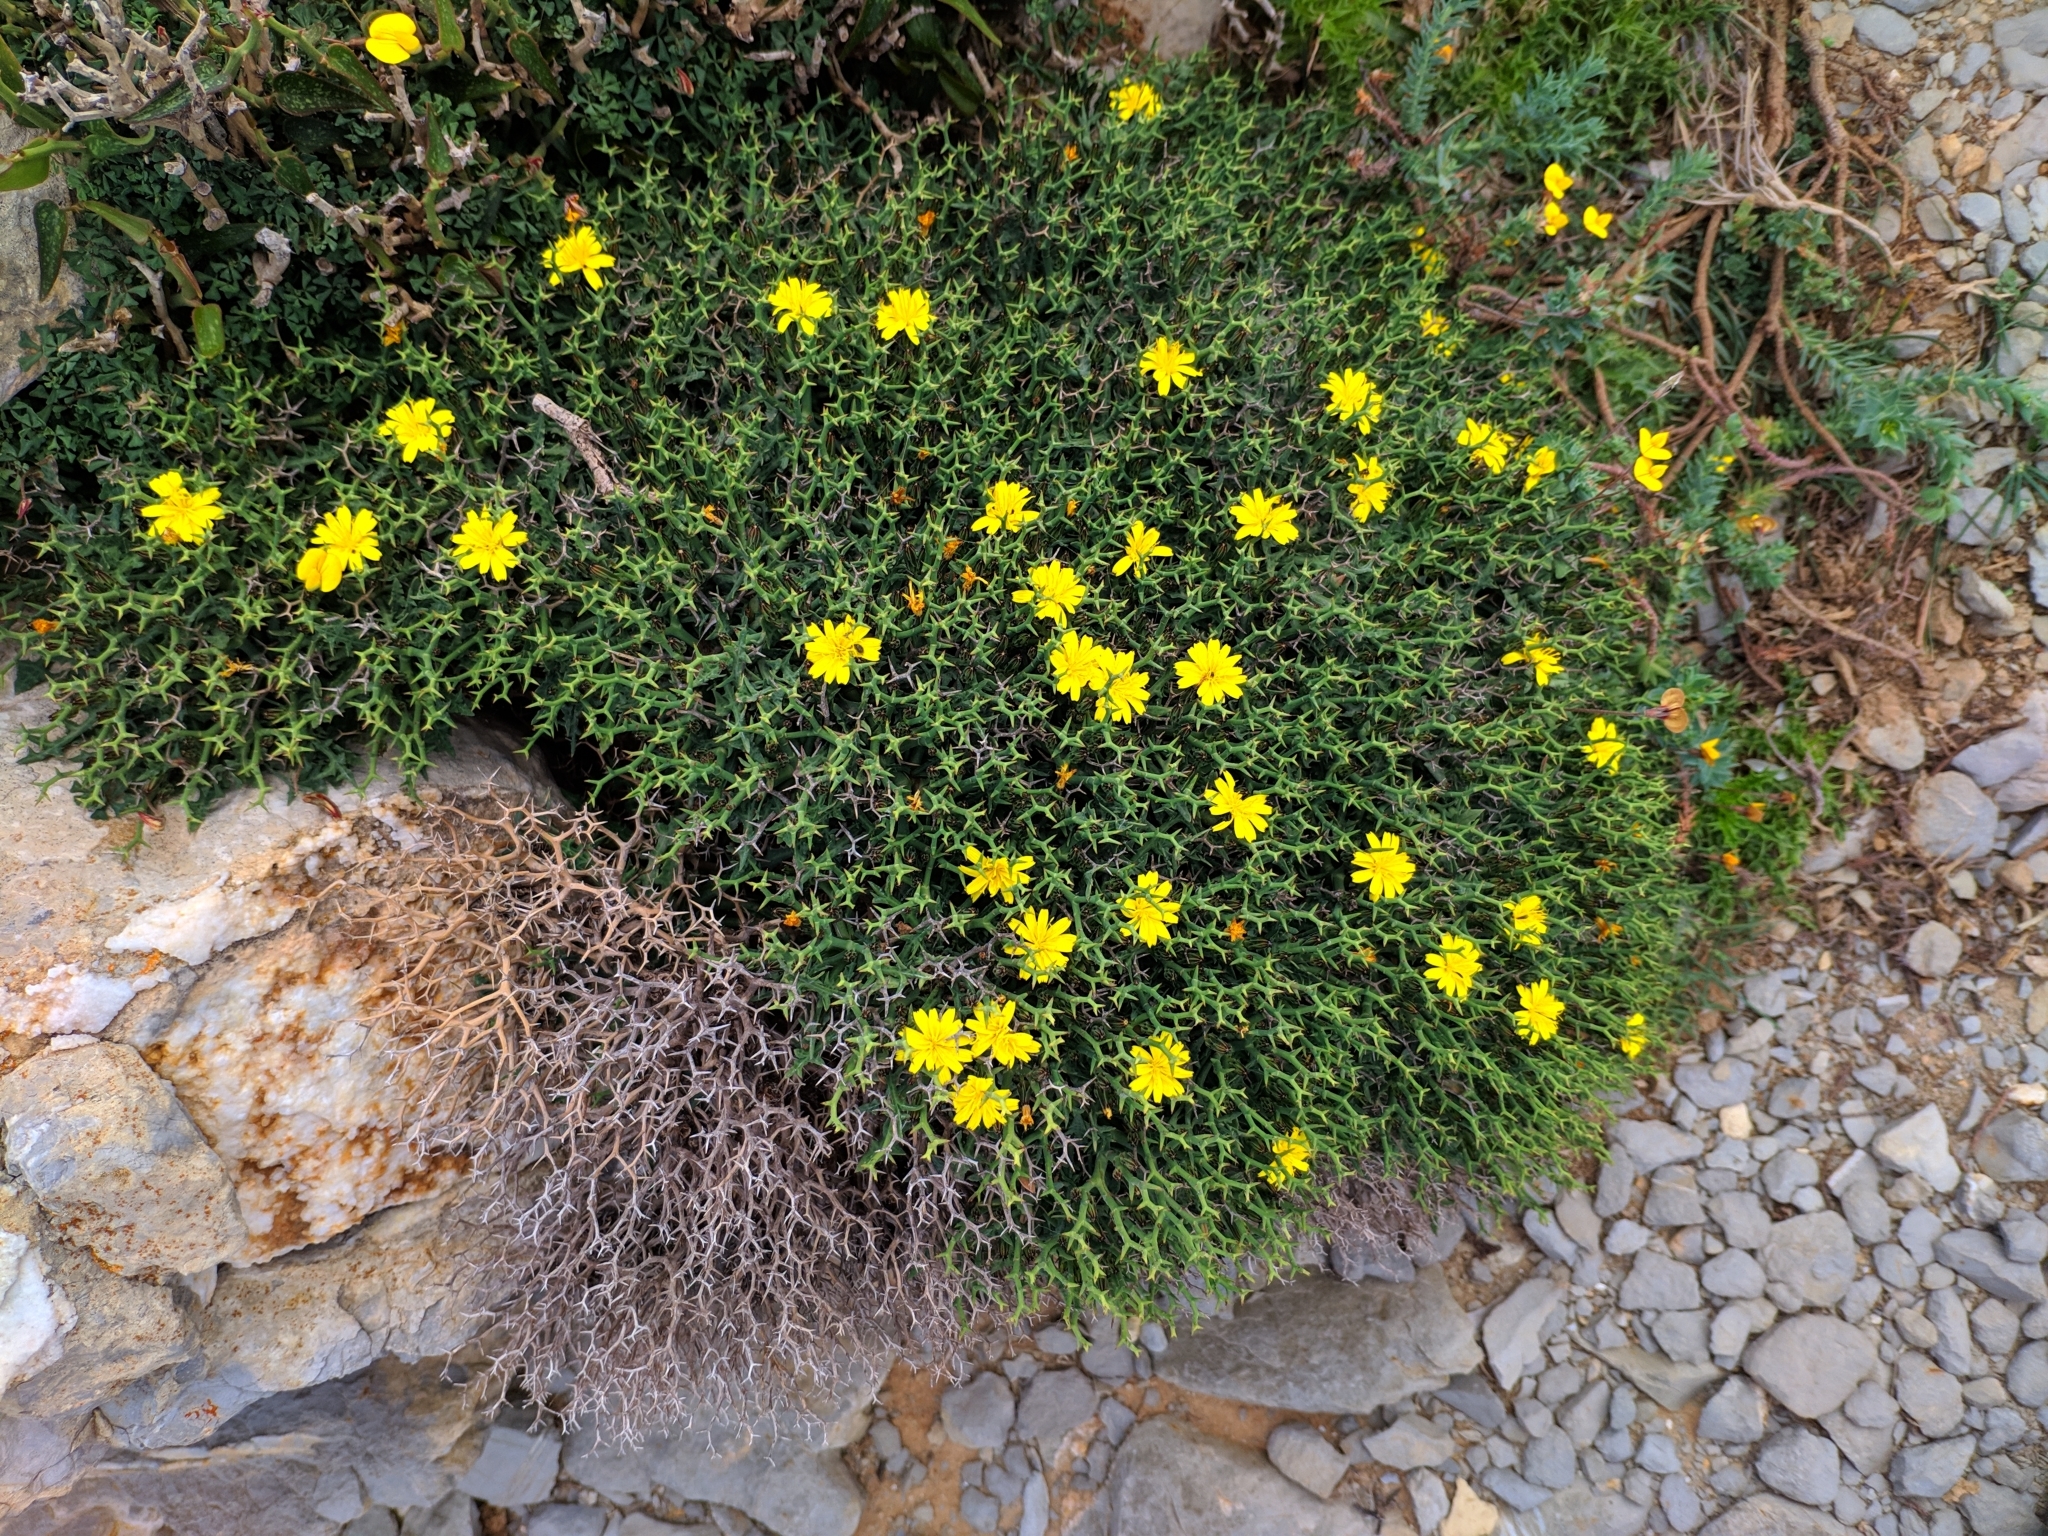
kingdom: Plantae
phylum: Tracheophyta
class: Magnoliopsida
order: Asterales
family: Asteraceae
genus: Launaea
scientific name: Launaea cervicornis
